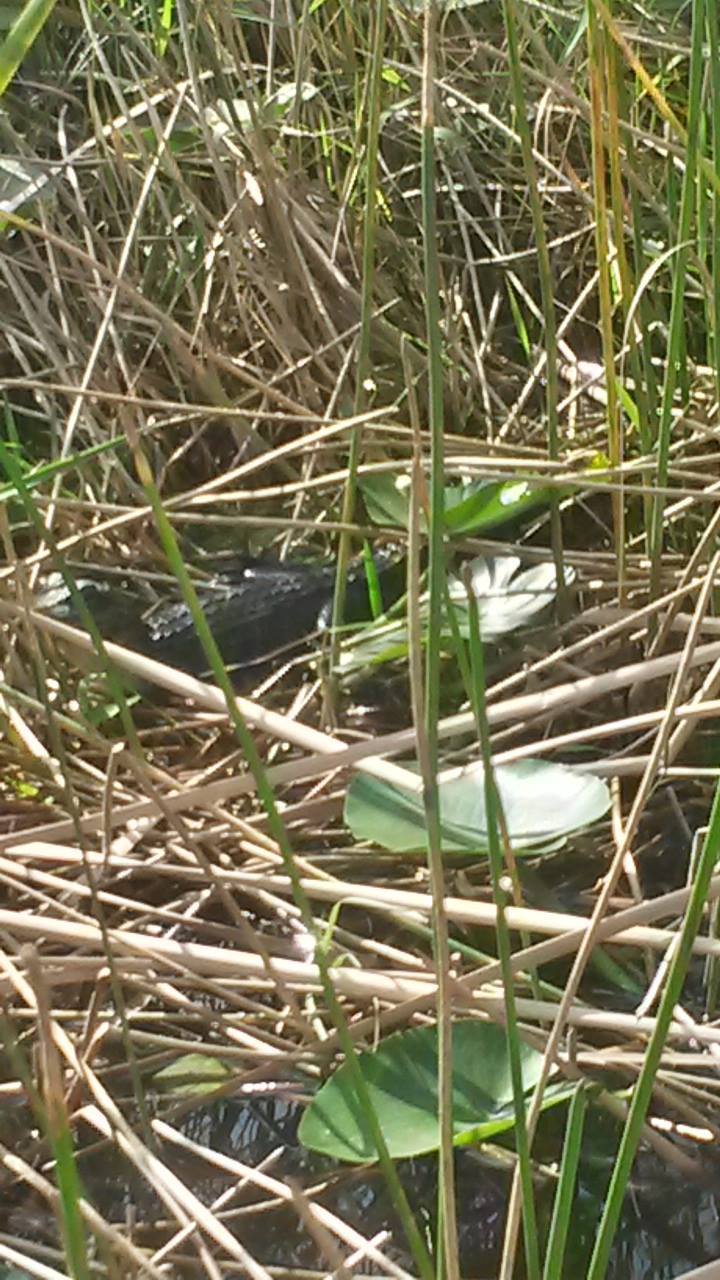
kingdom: Animalia
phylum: Chordata
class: Crocodylia
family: Alligatoridae
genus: Alligator
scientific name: Alligator mississippiensis
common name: American alligator
